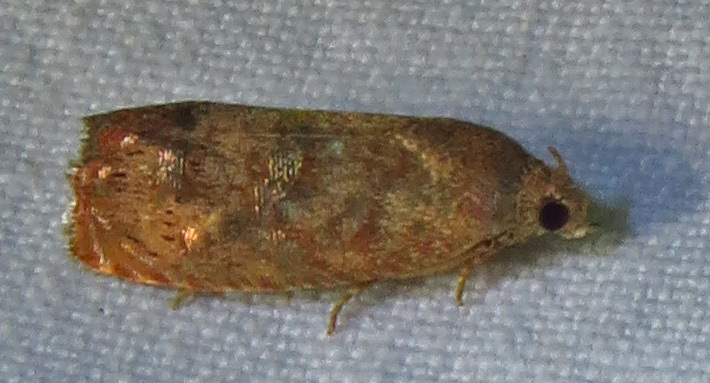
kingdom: Animalia
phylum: Arthropoda
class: Insecta
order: Lepidoptera
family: Tortricidae
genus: Cydia
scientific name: Cydia latiferreana
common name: Filbertworm moth
